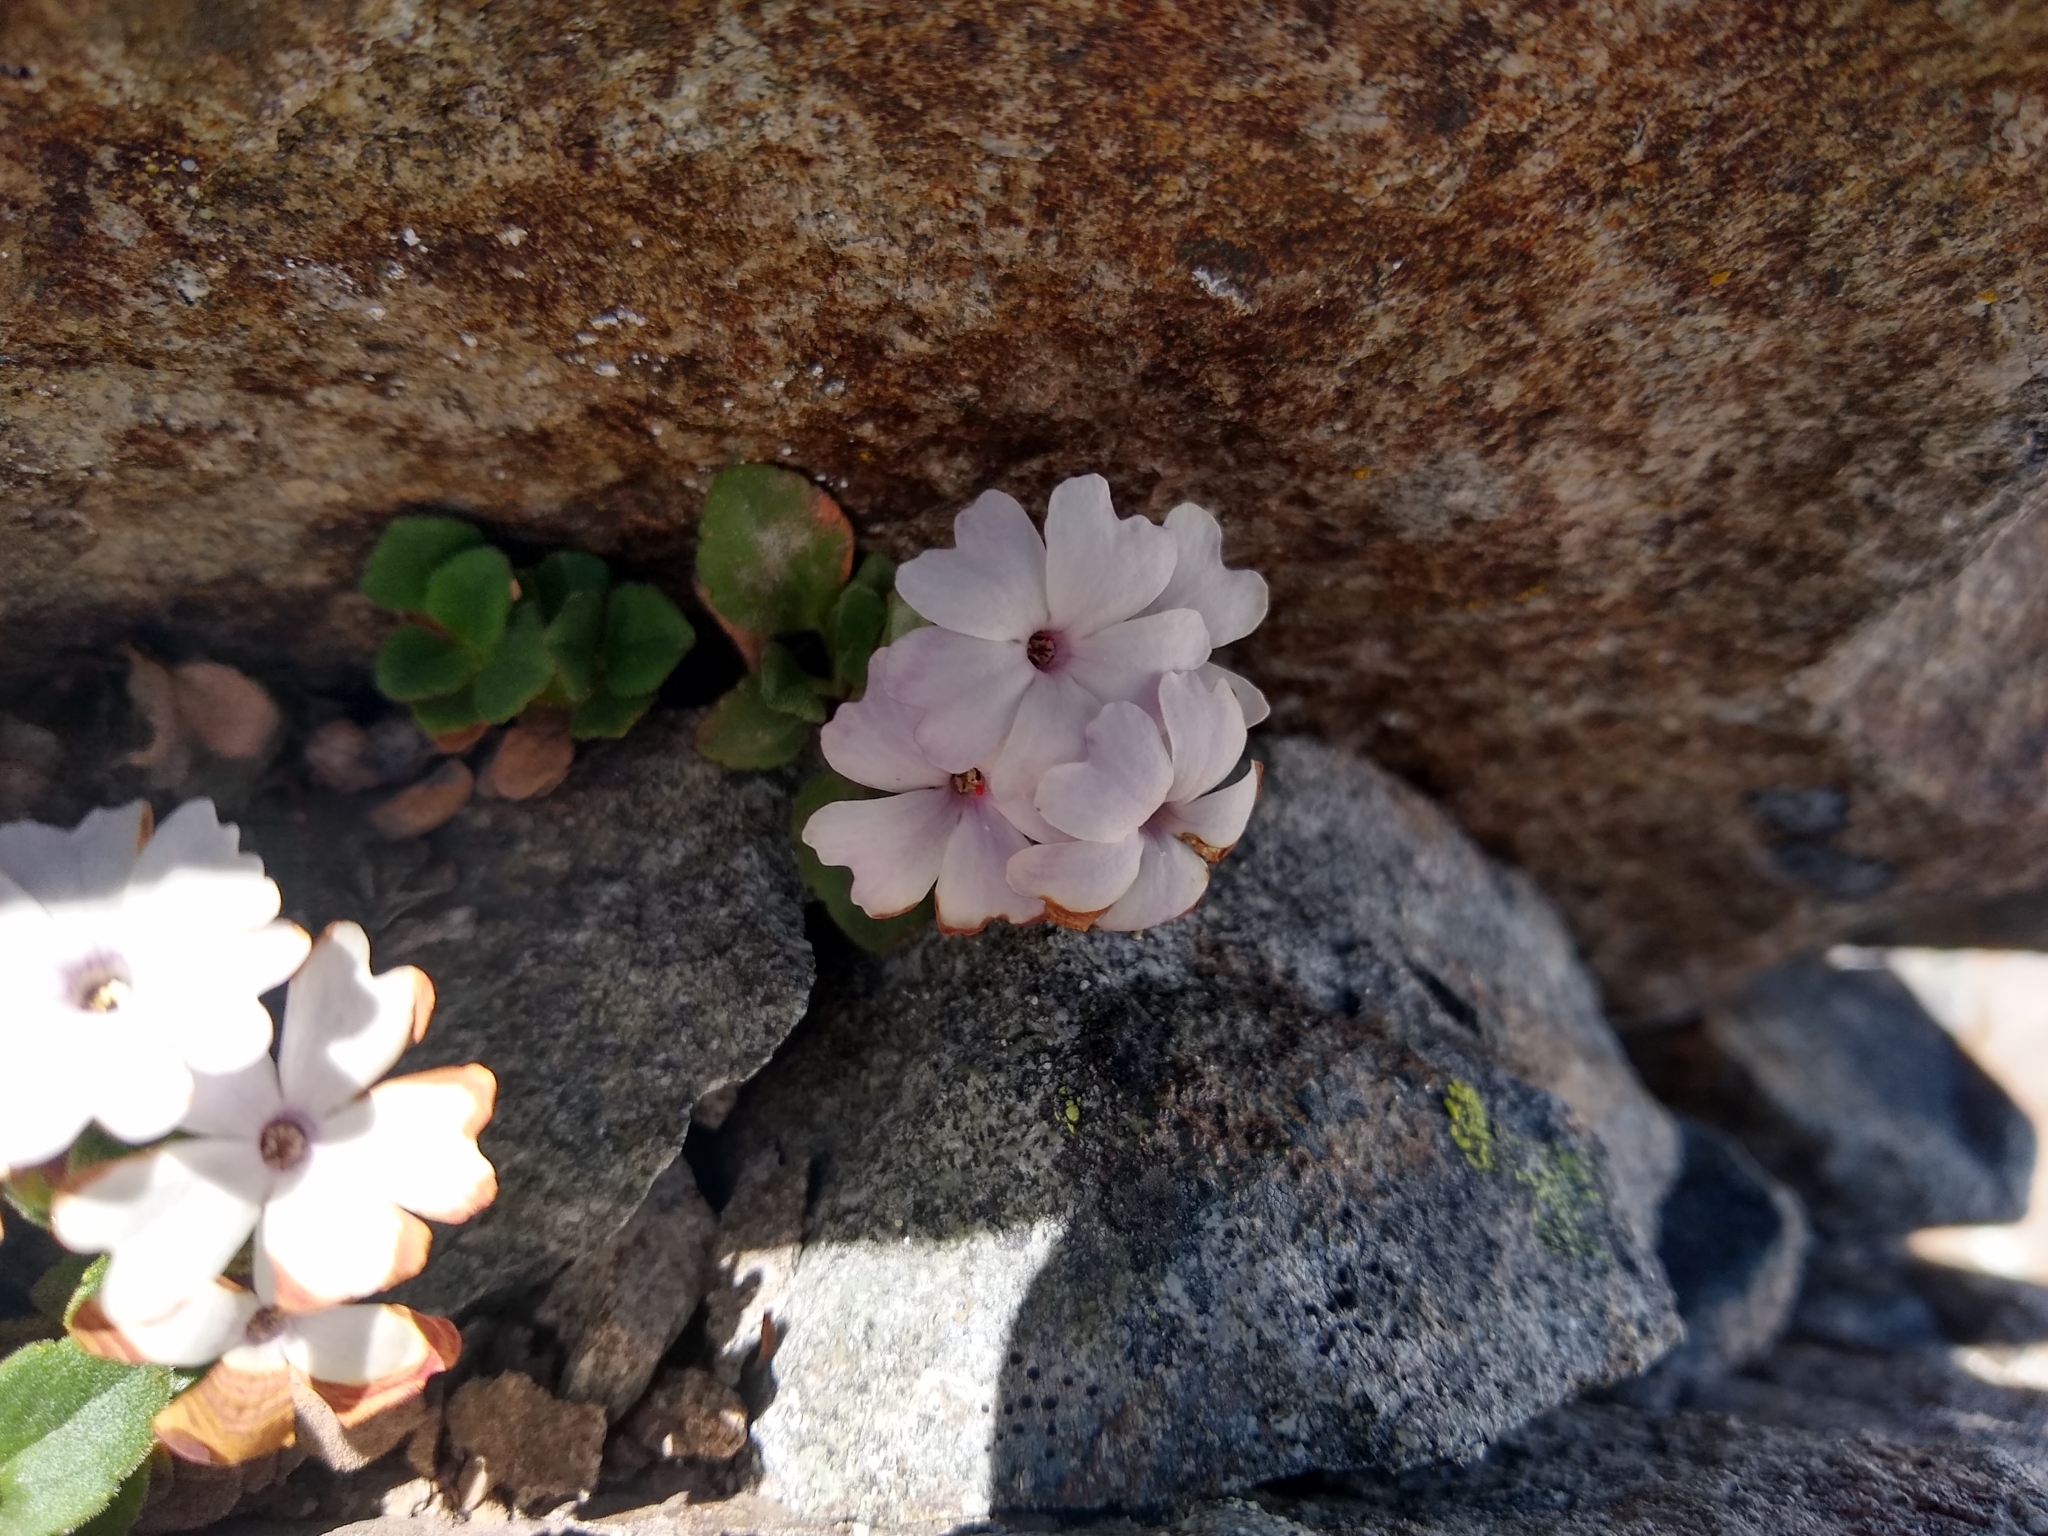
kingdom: Plantae
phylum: Tracheophyta
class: Magnoliopsida
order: Lamiales
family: Plantaginaceae
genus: Ourisia
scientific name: Ourisia fragrans
